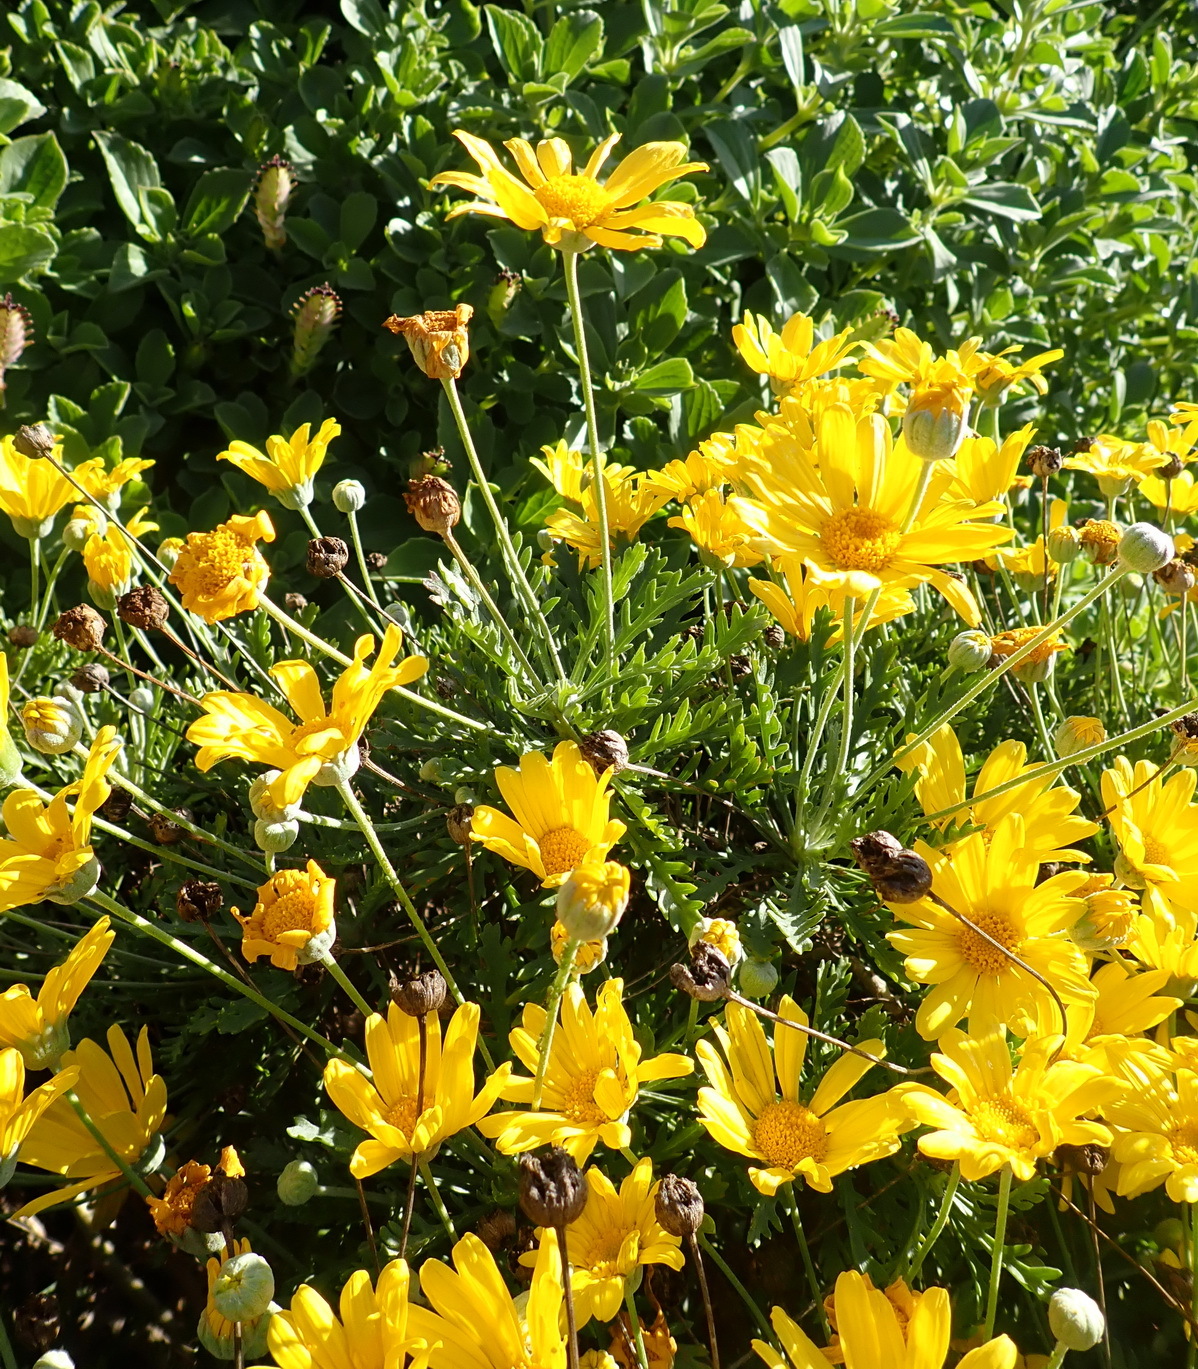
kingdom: Plantae
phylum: Tracheophyta
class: Magnoliopsida
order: Asterales
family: Asteraceae
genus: Euryops
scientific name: Euryops pectinatus
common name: Gray-leaf euryops
